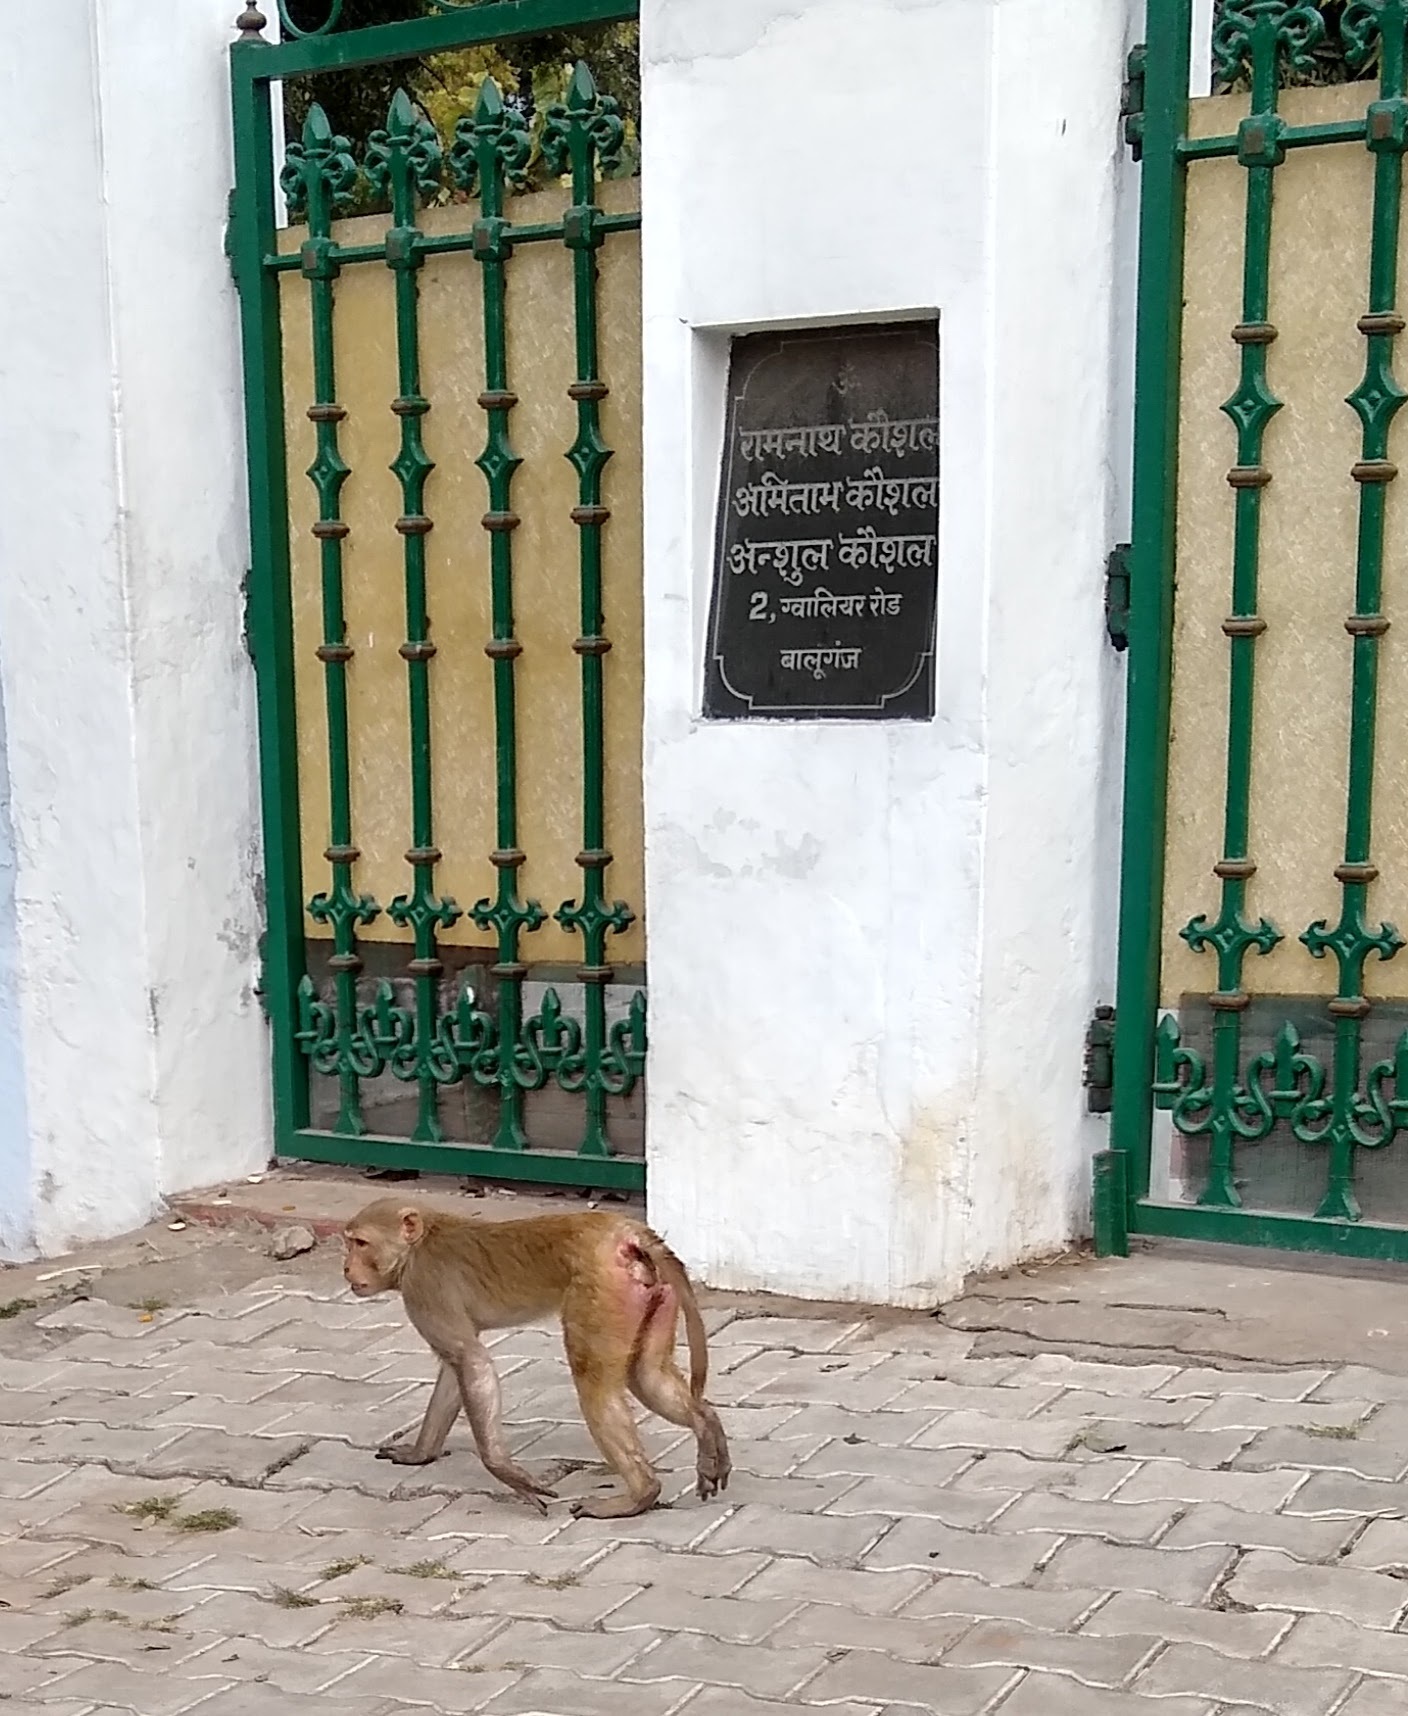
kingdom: Animalia
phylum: Chordata
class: Mammalia
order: Primates
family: Cercopithecidae
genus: Macaca
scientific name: Macaca mulatta
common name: Rhesus monkey
